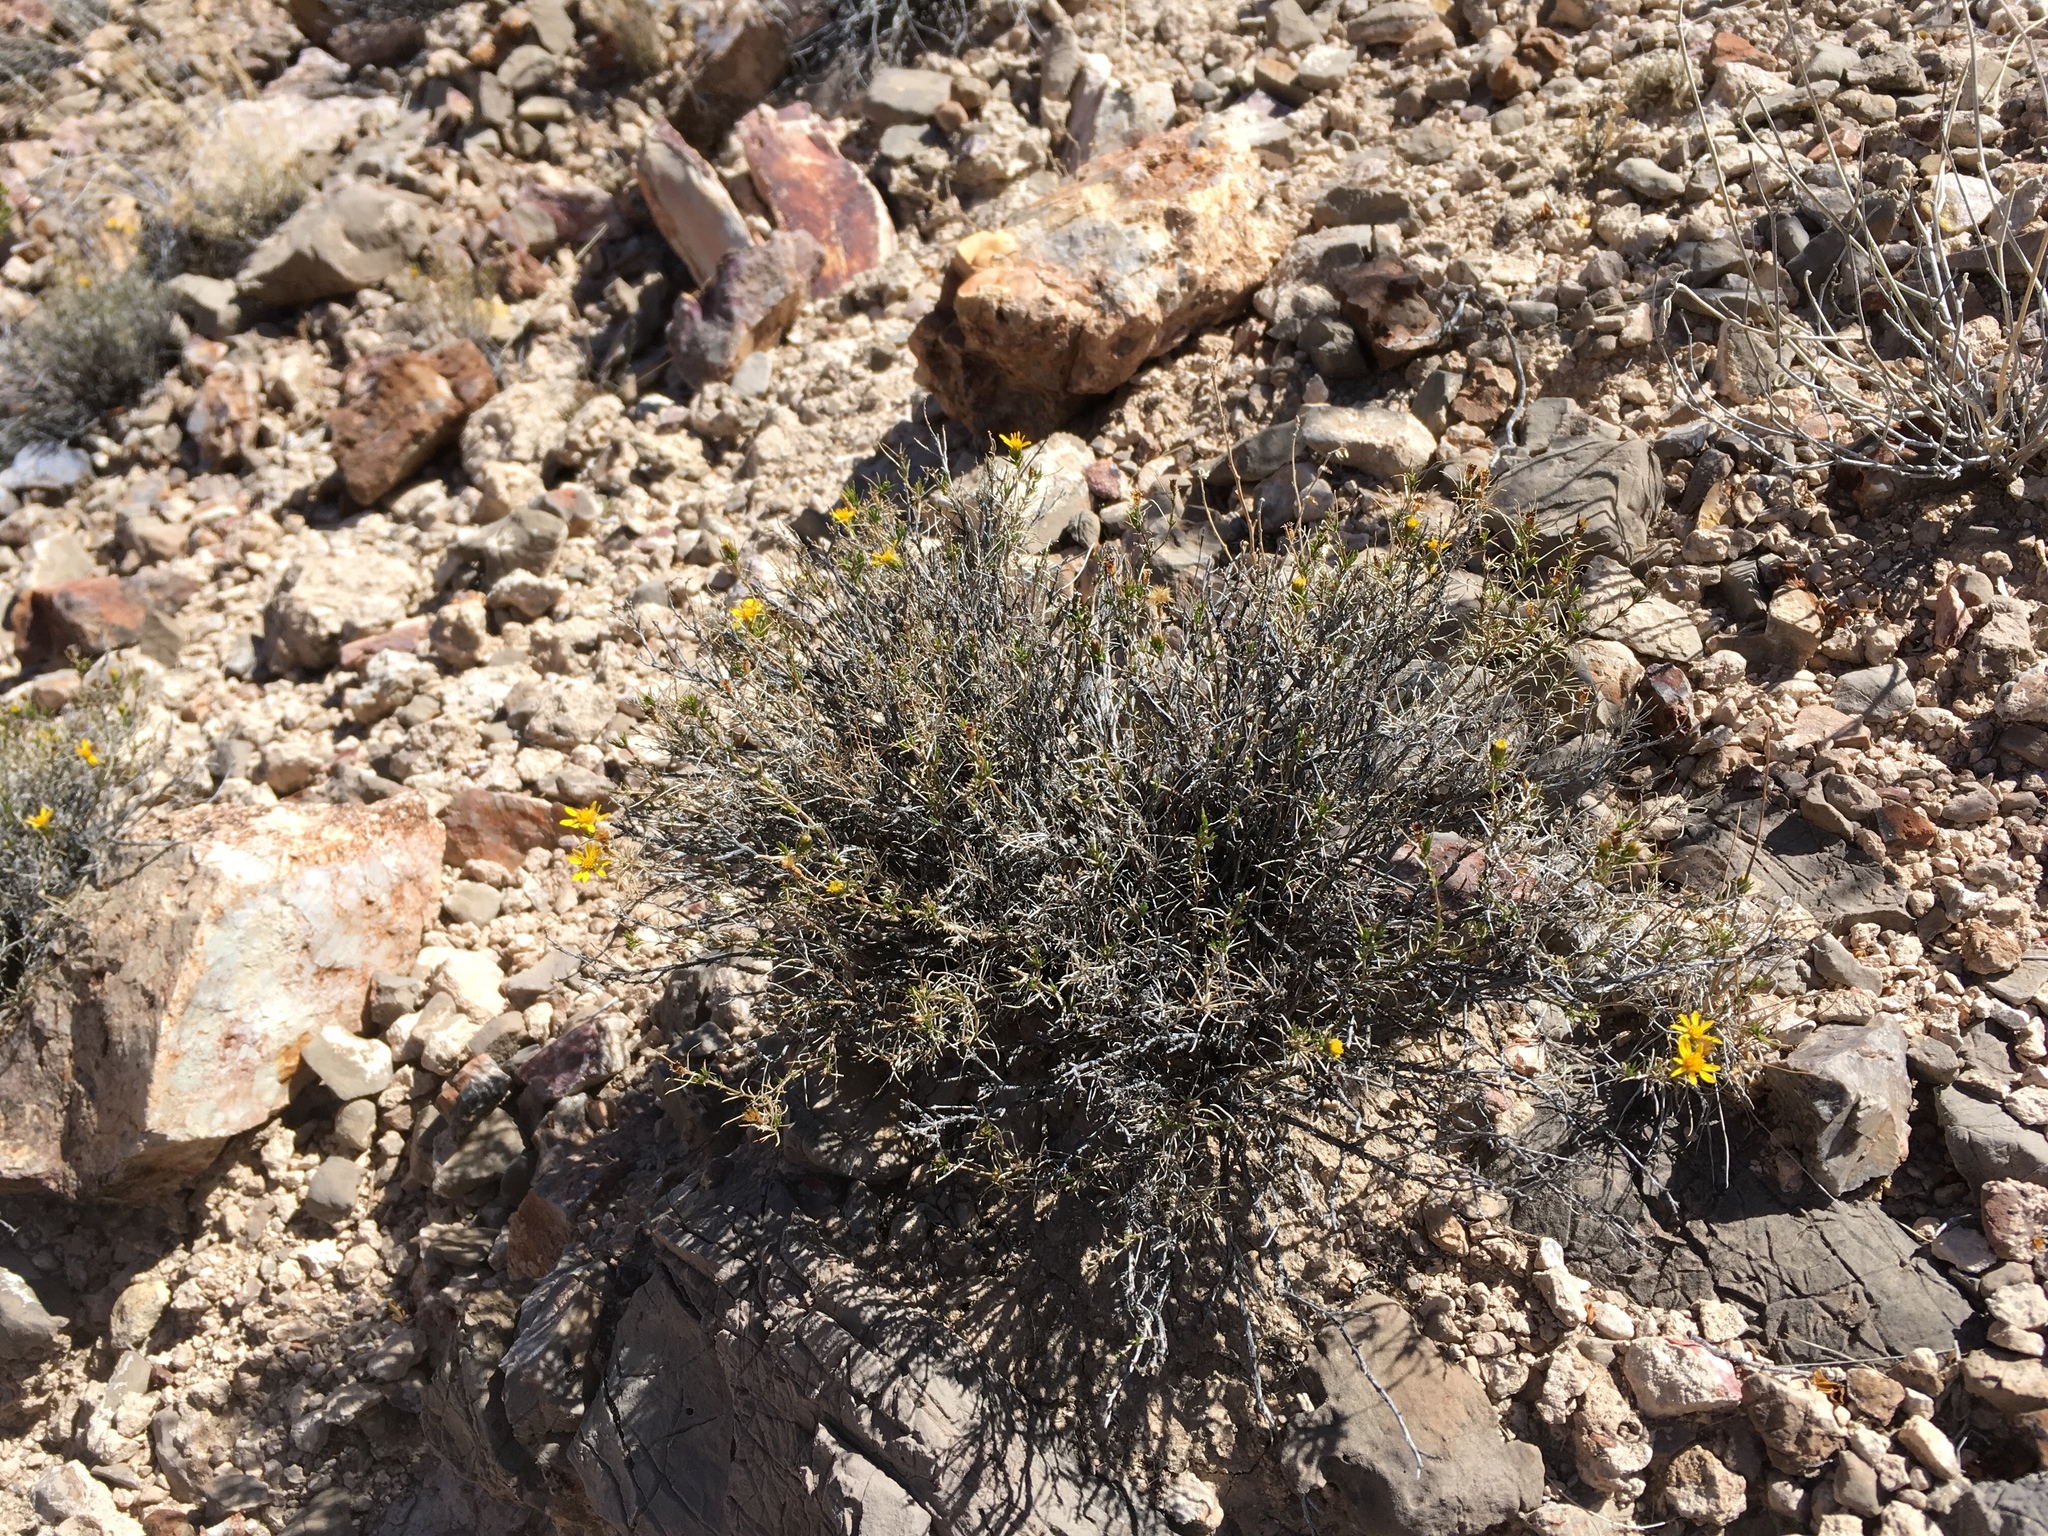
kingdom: Plantae
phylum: Tracheophyta
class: Magnoliopsida
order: Asterales
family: Asteraceae
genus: Thymophylla
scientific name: Thymophylla acerosa
